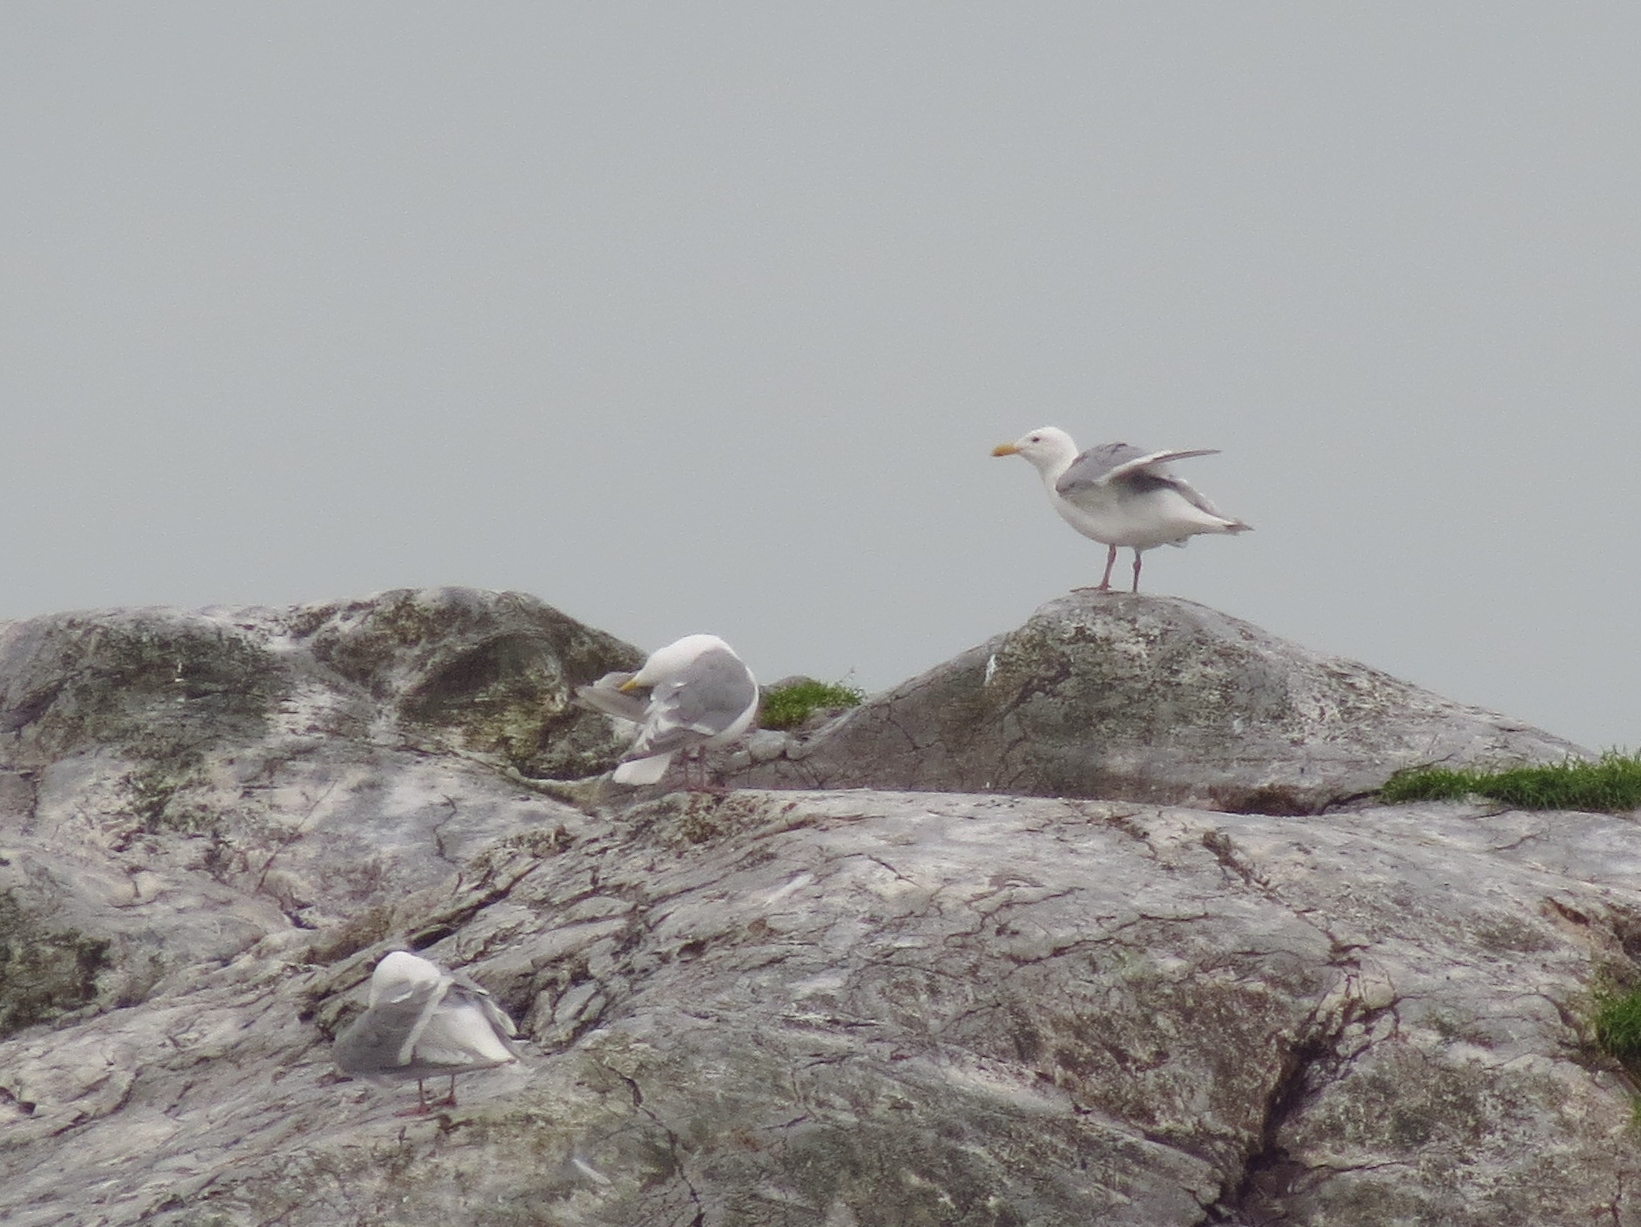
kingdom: Animalia
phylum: Chordata
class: Aves
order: Charadriiformes
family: Laridae
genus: Larus
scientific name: Larus glaucescens
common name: Glaucous-winged gull
